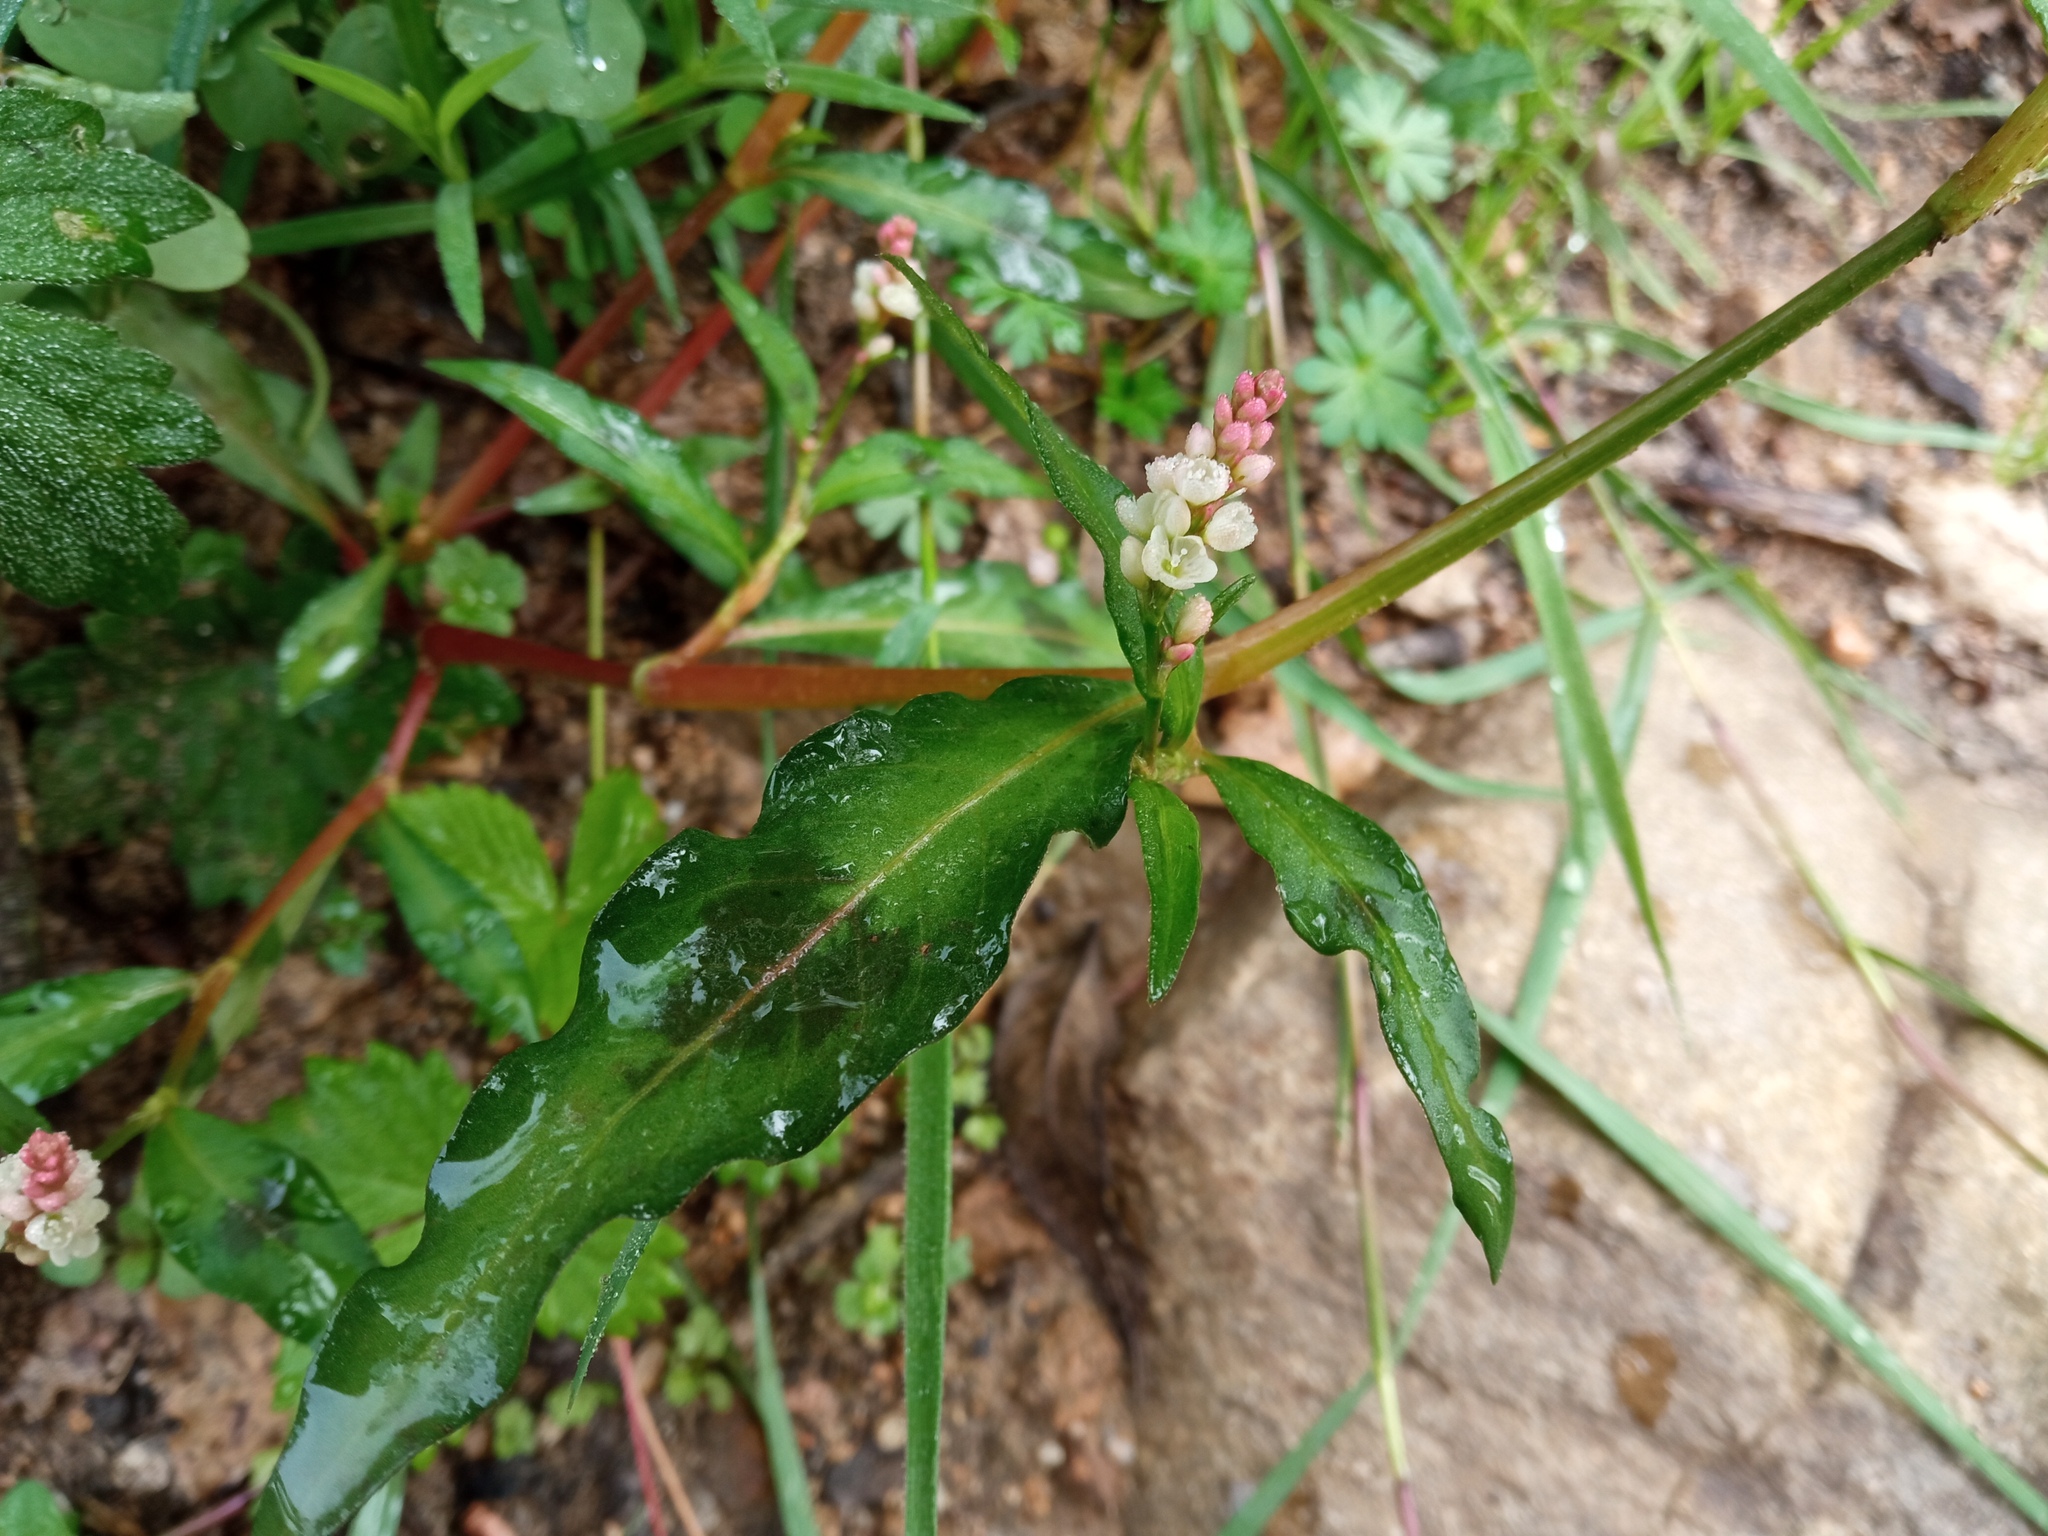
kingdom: Plantae
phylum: Tracheophyta
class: Magnoliopsida
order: Caryophyllales
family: Polygonaceae
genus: Persicaria
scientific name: Persicaria maculosa
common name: Redshank
